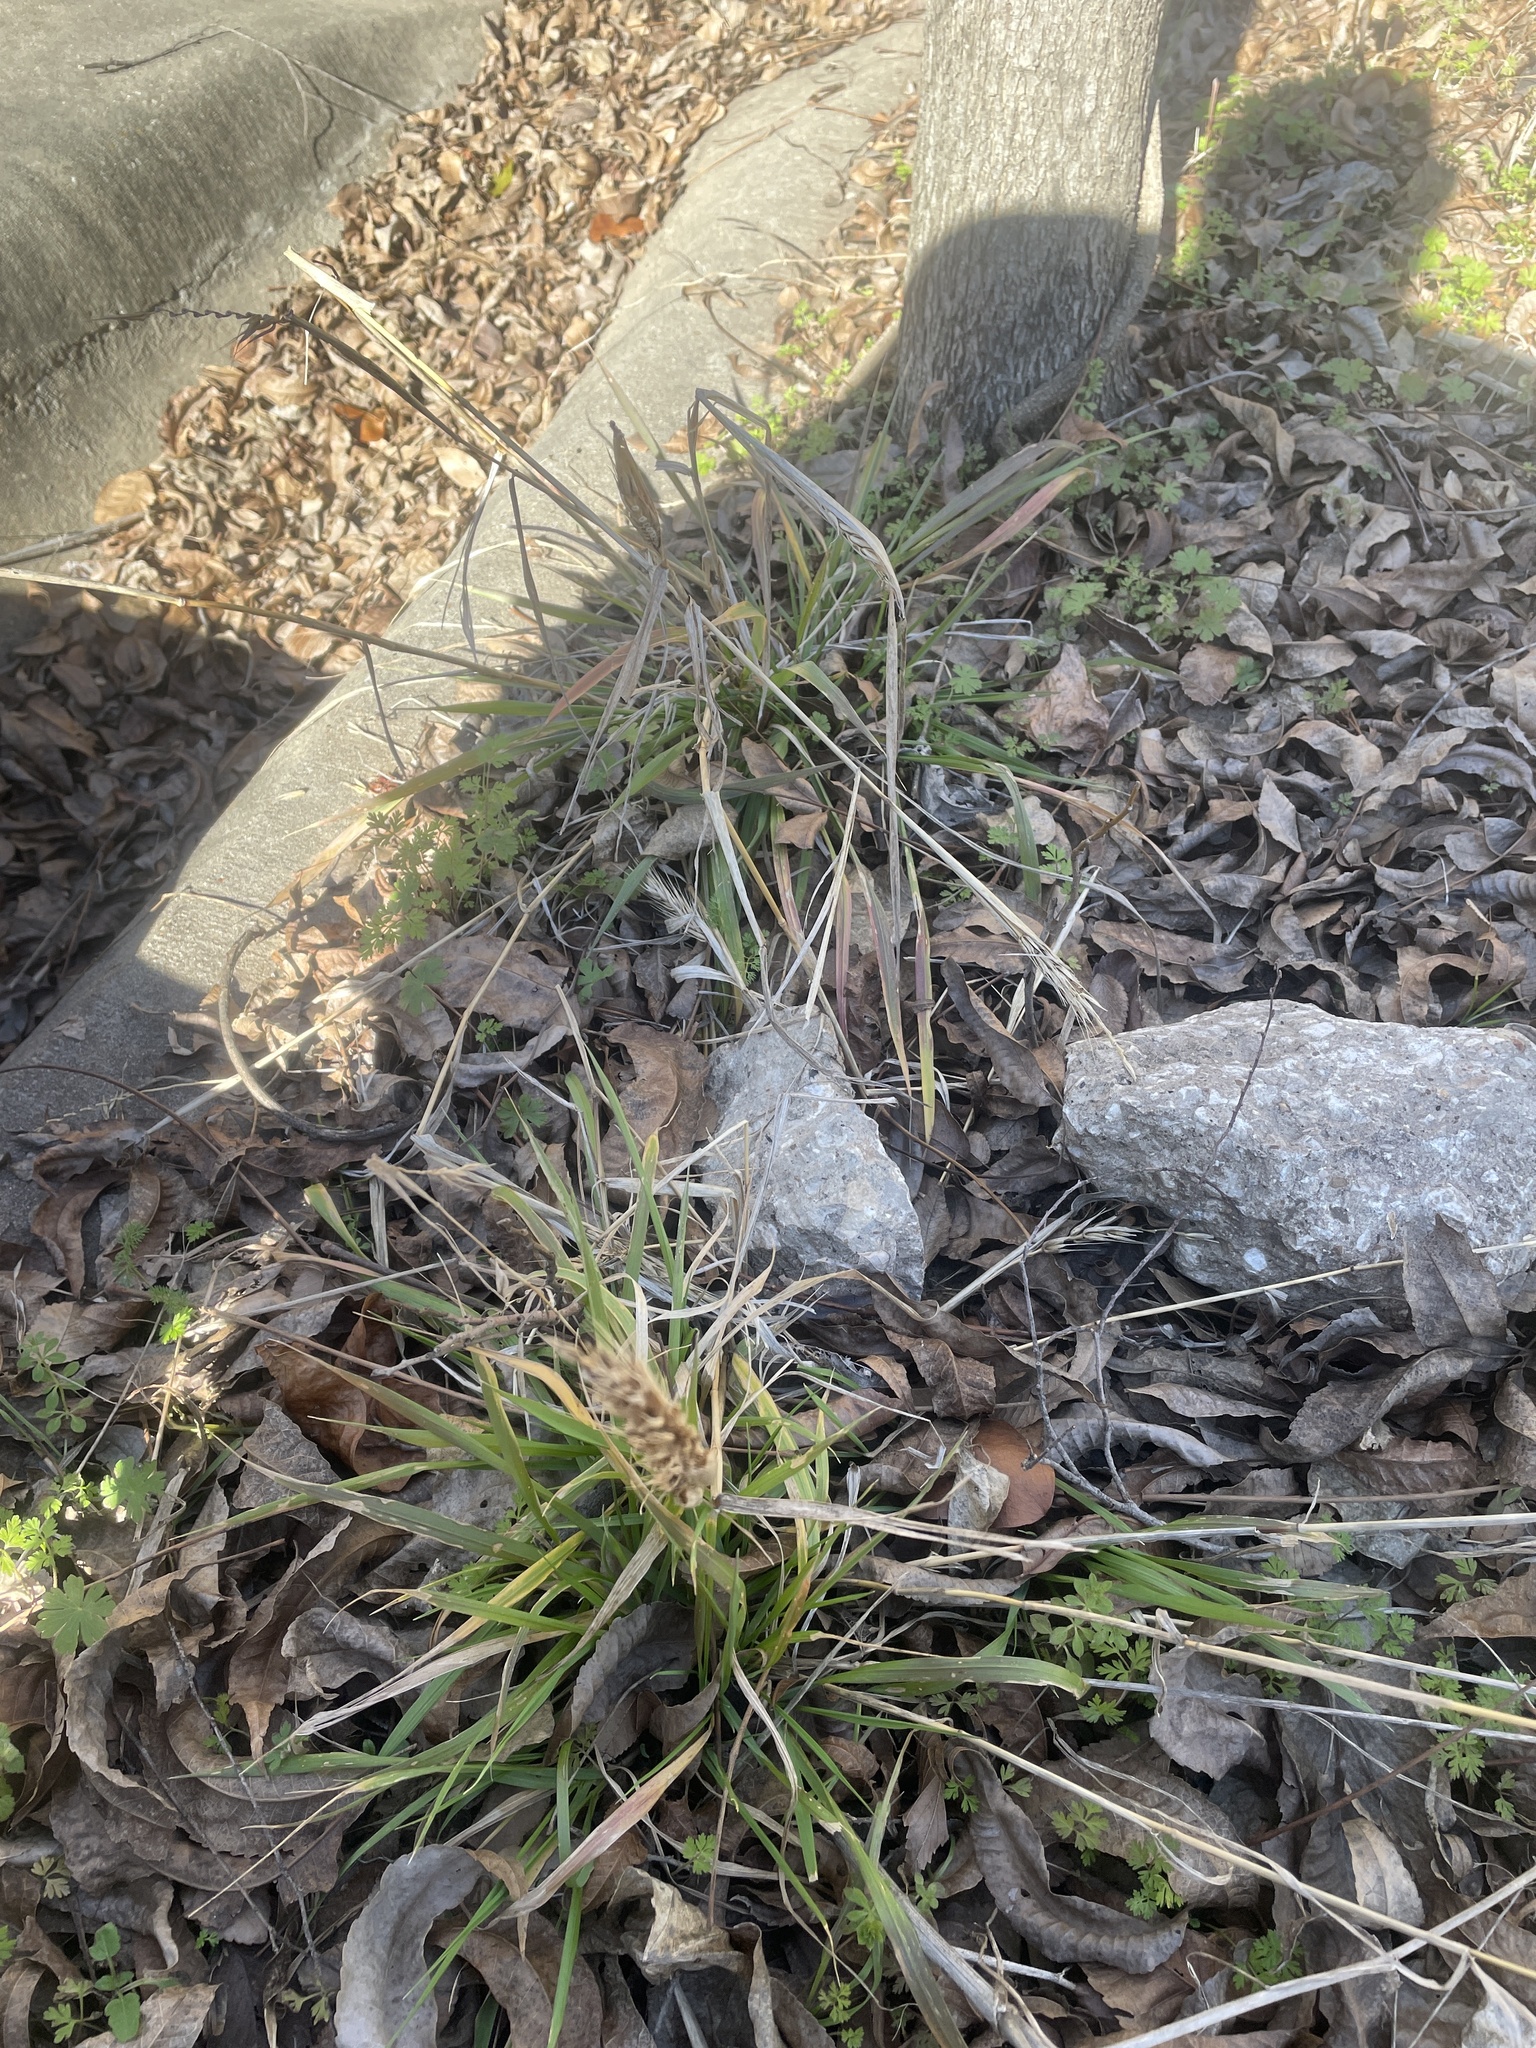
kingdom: Plantae
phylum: Tracheophyta
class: Liliopsida
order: Poales
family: Poaceae
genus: Elymus
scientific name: Elymus virginicus
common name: Common eastern wildrye
